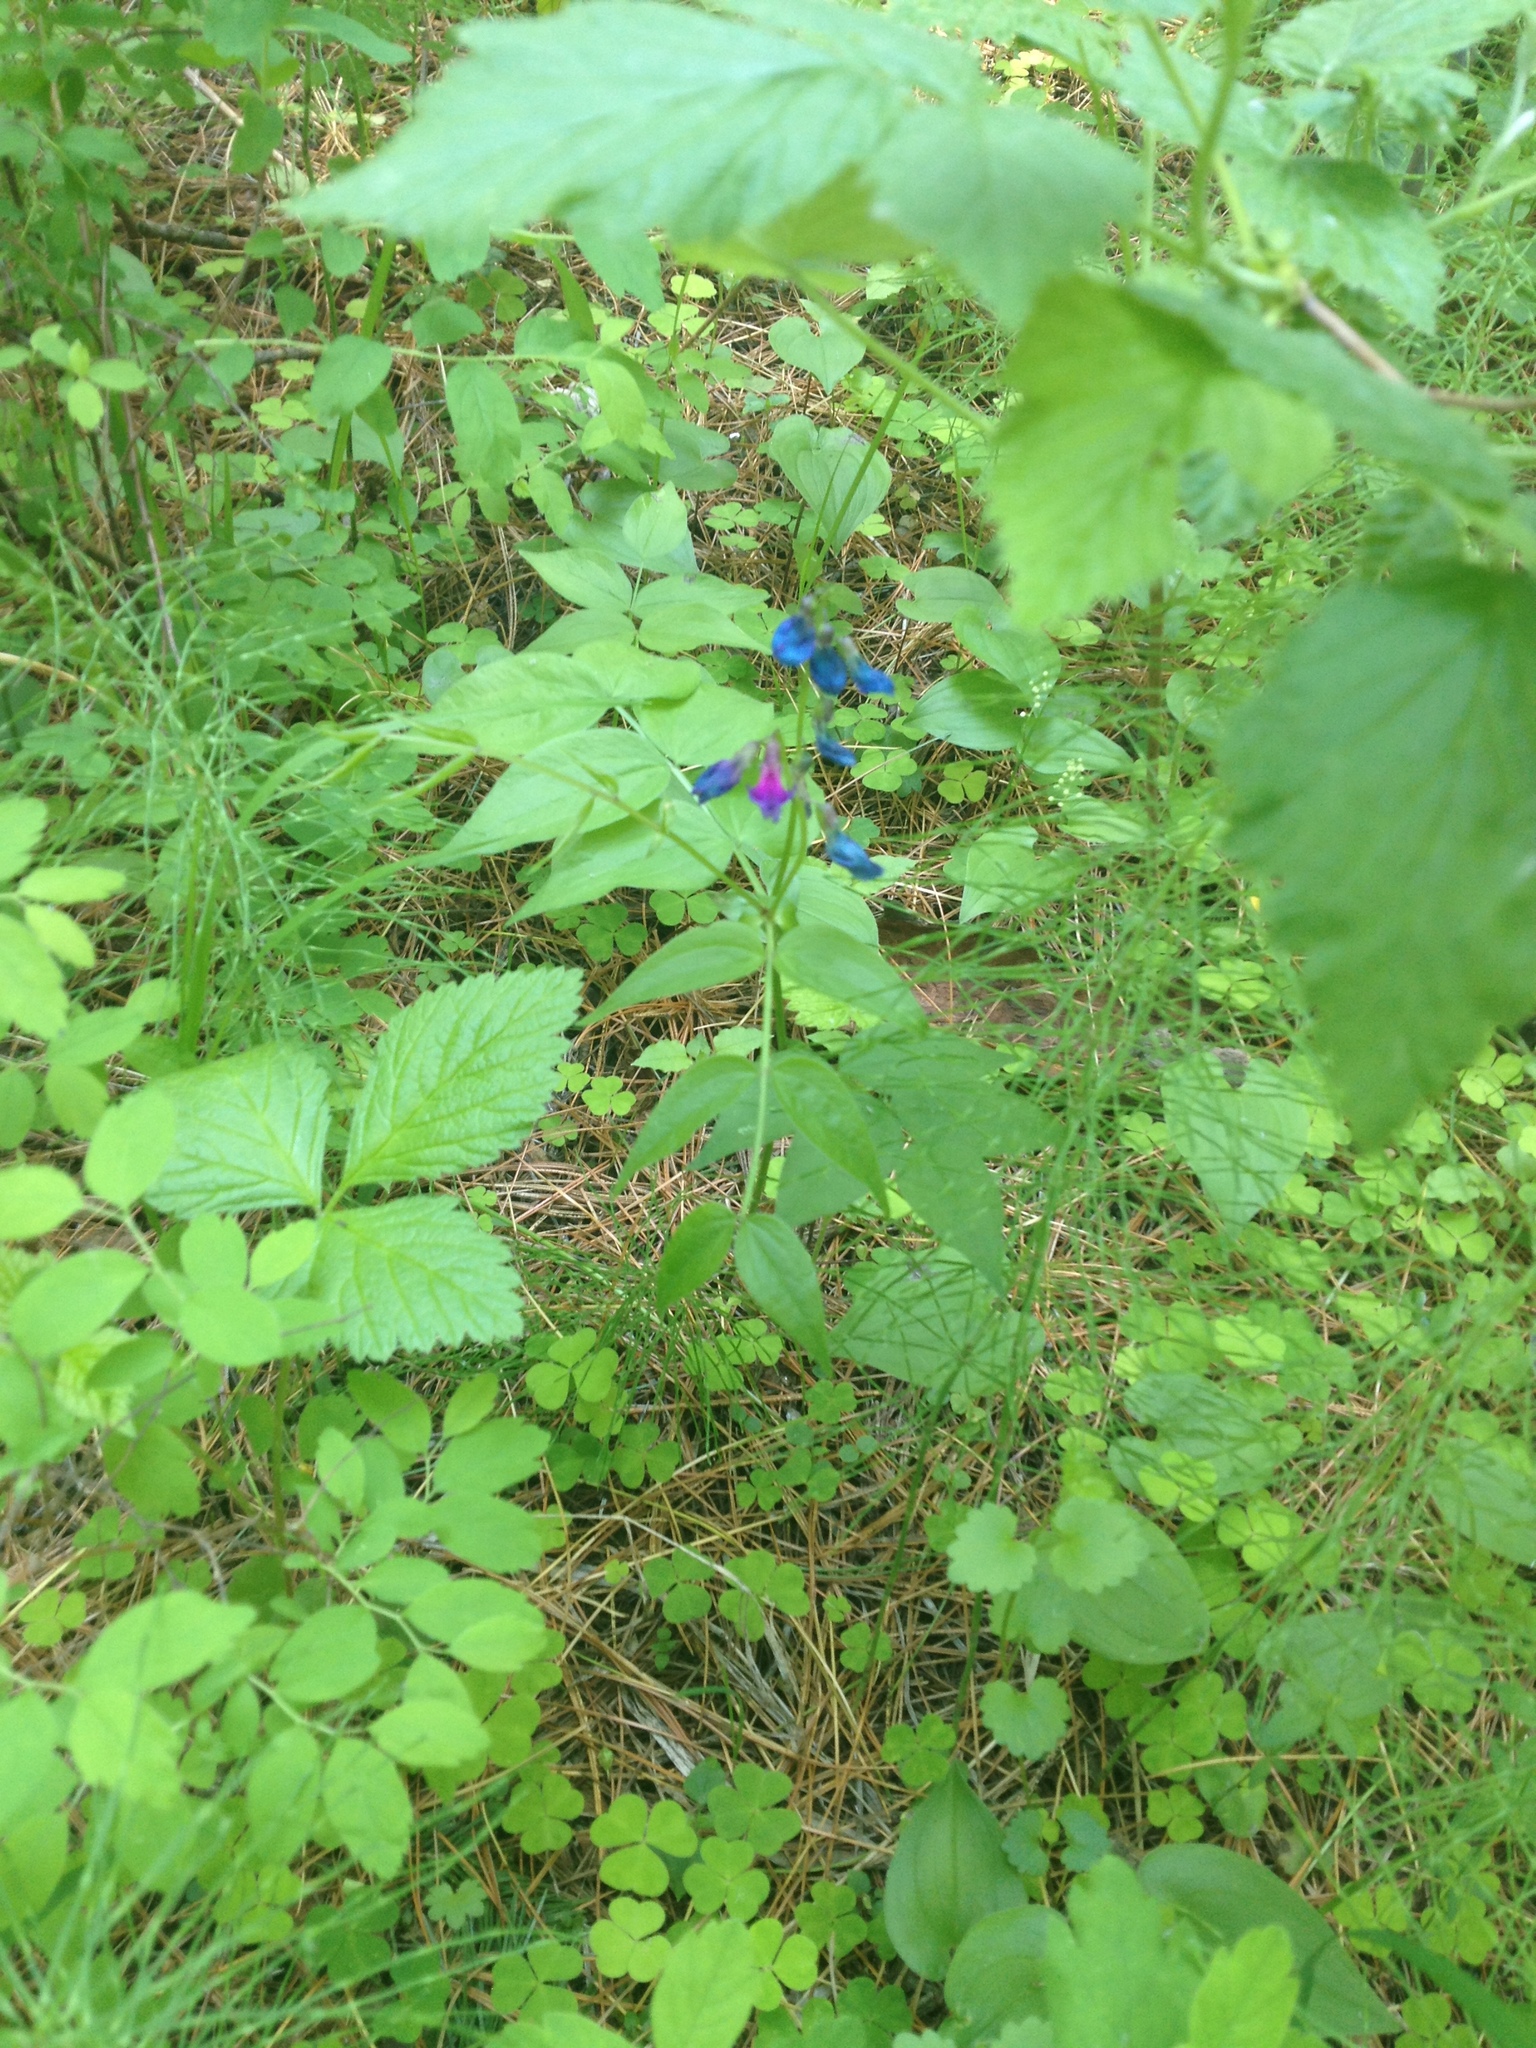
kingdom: Plantae
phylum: Tracheophyta
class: Magnoliopsida
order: Fabales
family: Fabaceae
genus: Lathyrus
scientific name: Lathyrus vernus
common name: Spring pea
